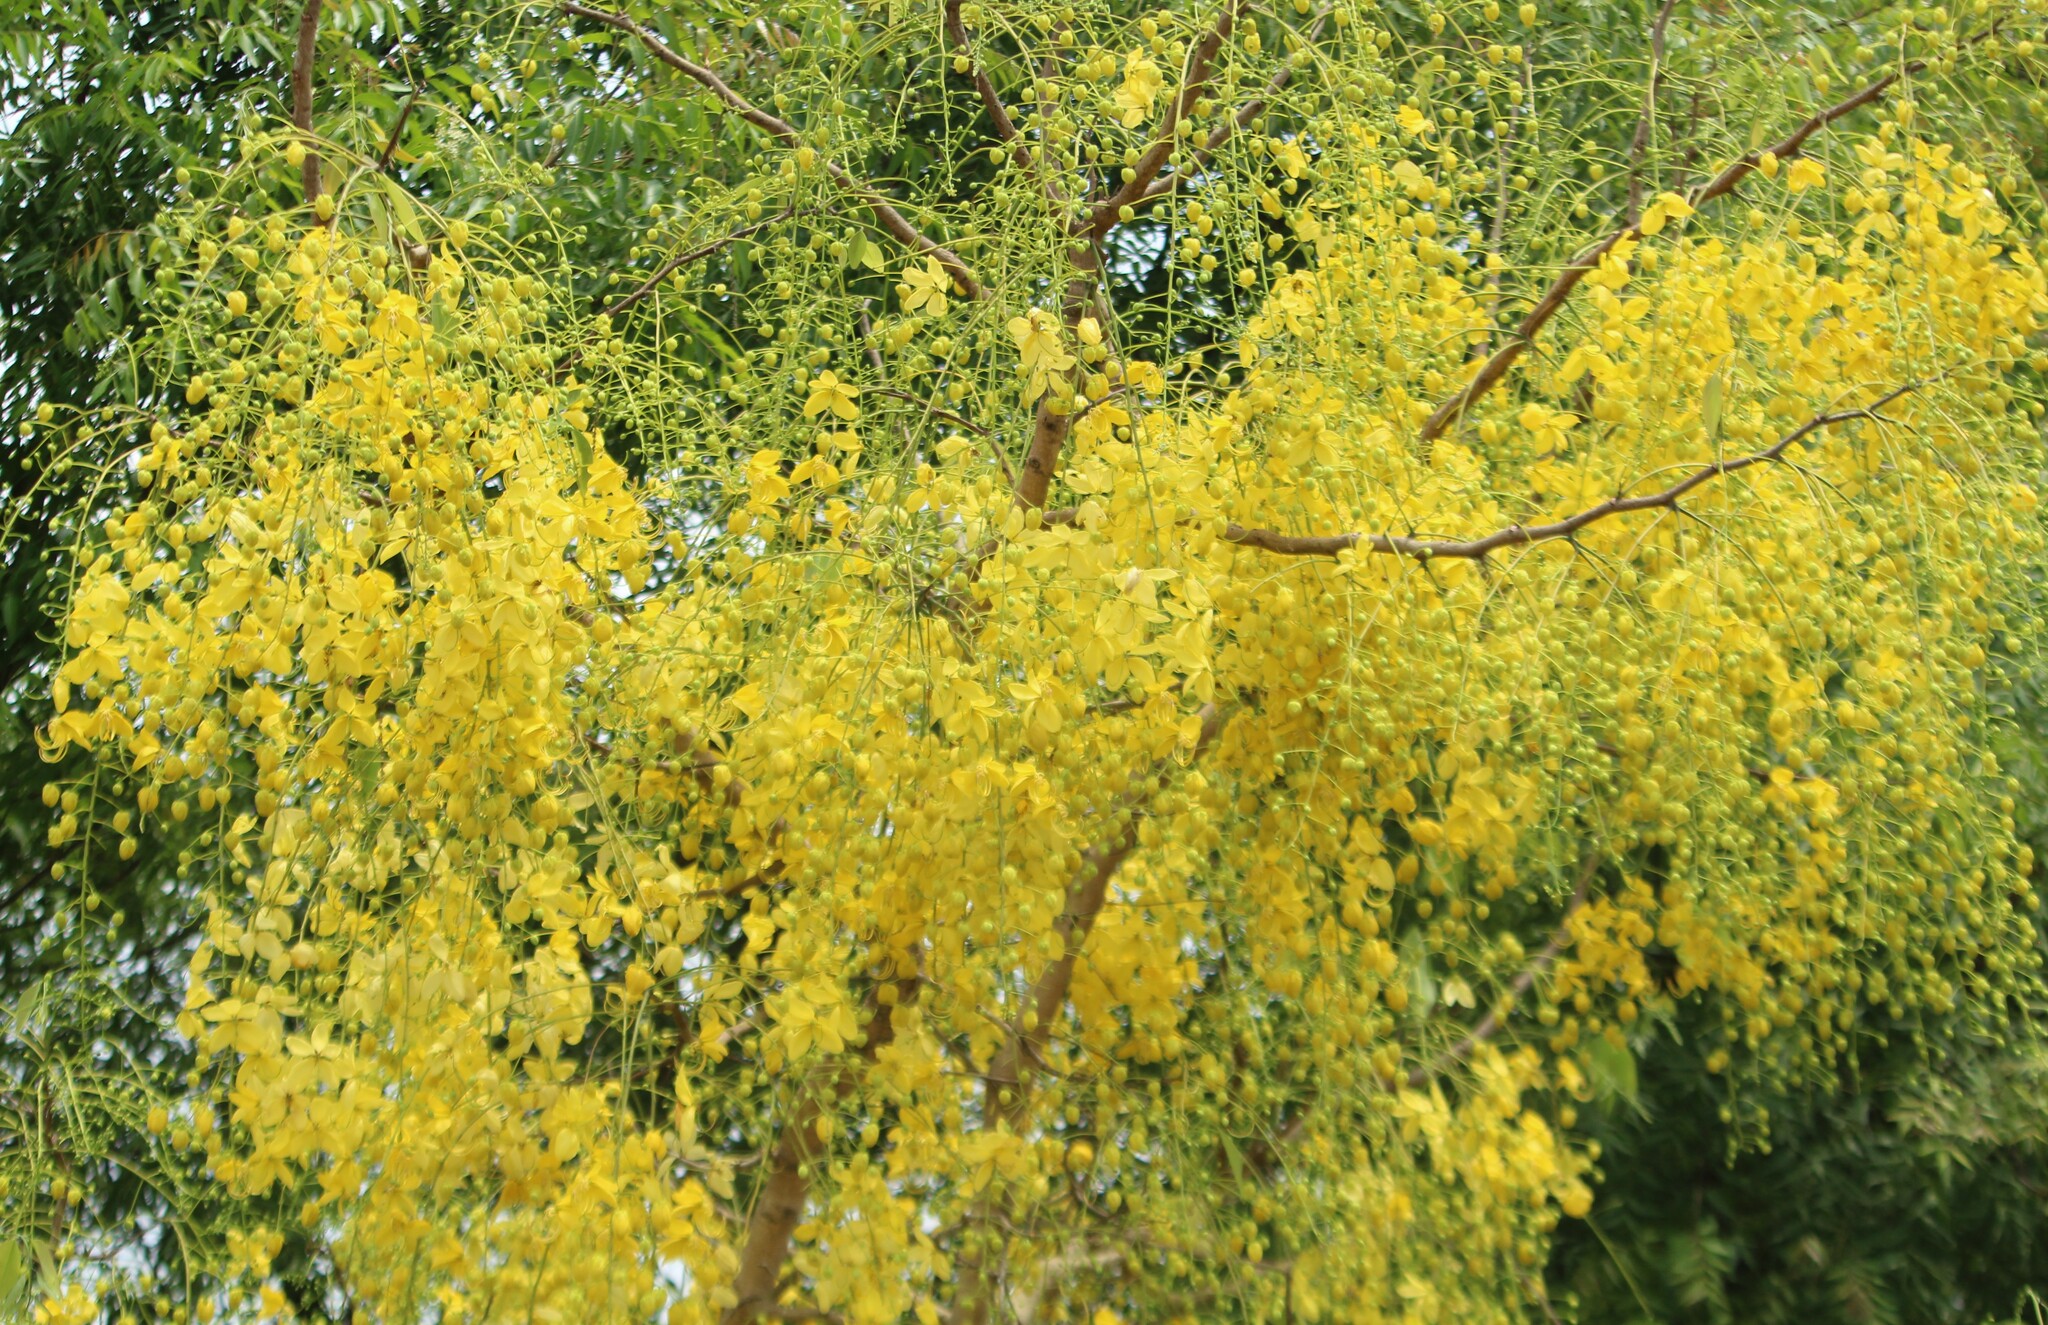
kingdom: Plantae
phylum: Tracheophyta
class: Magnoliopsida
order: Fabales
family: Fabaceae
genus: Cassia
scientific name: Cassia fistula
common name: Golden shower
